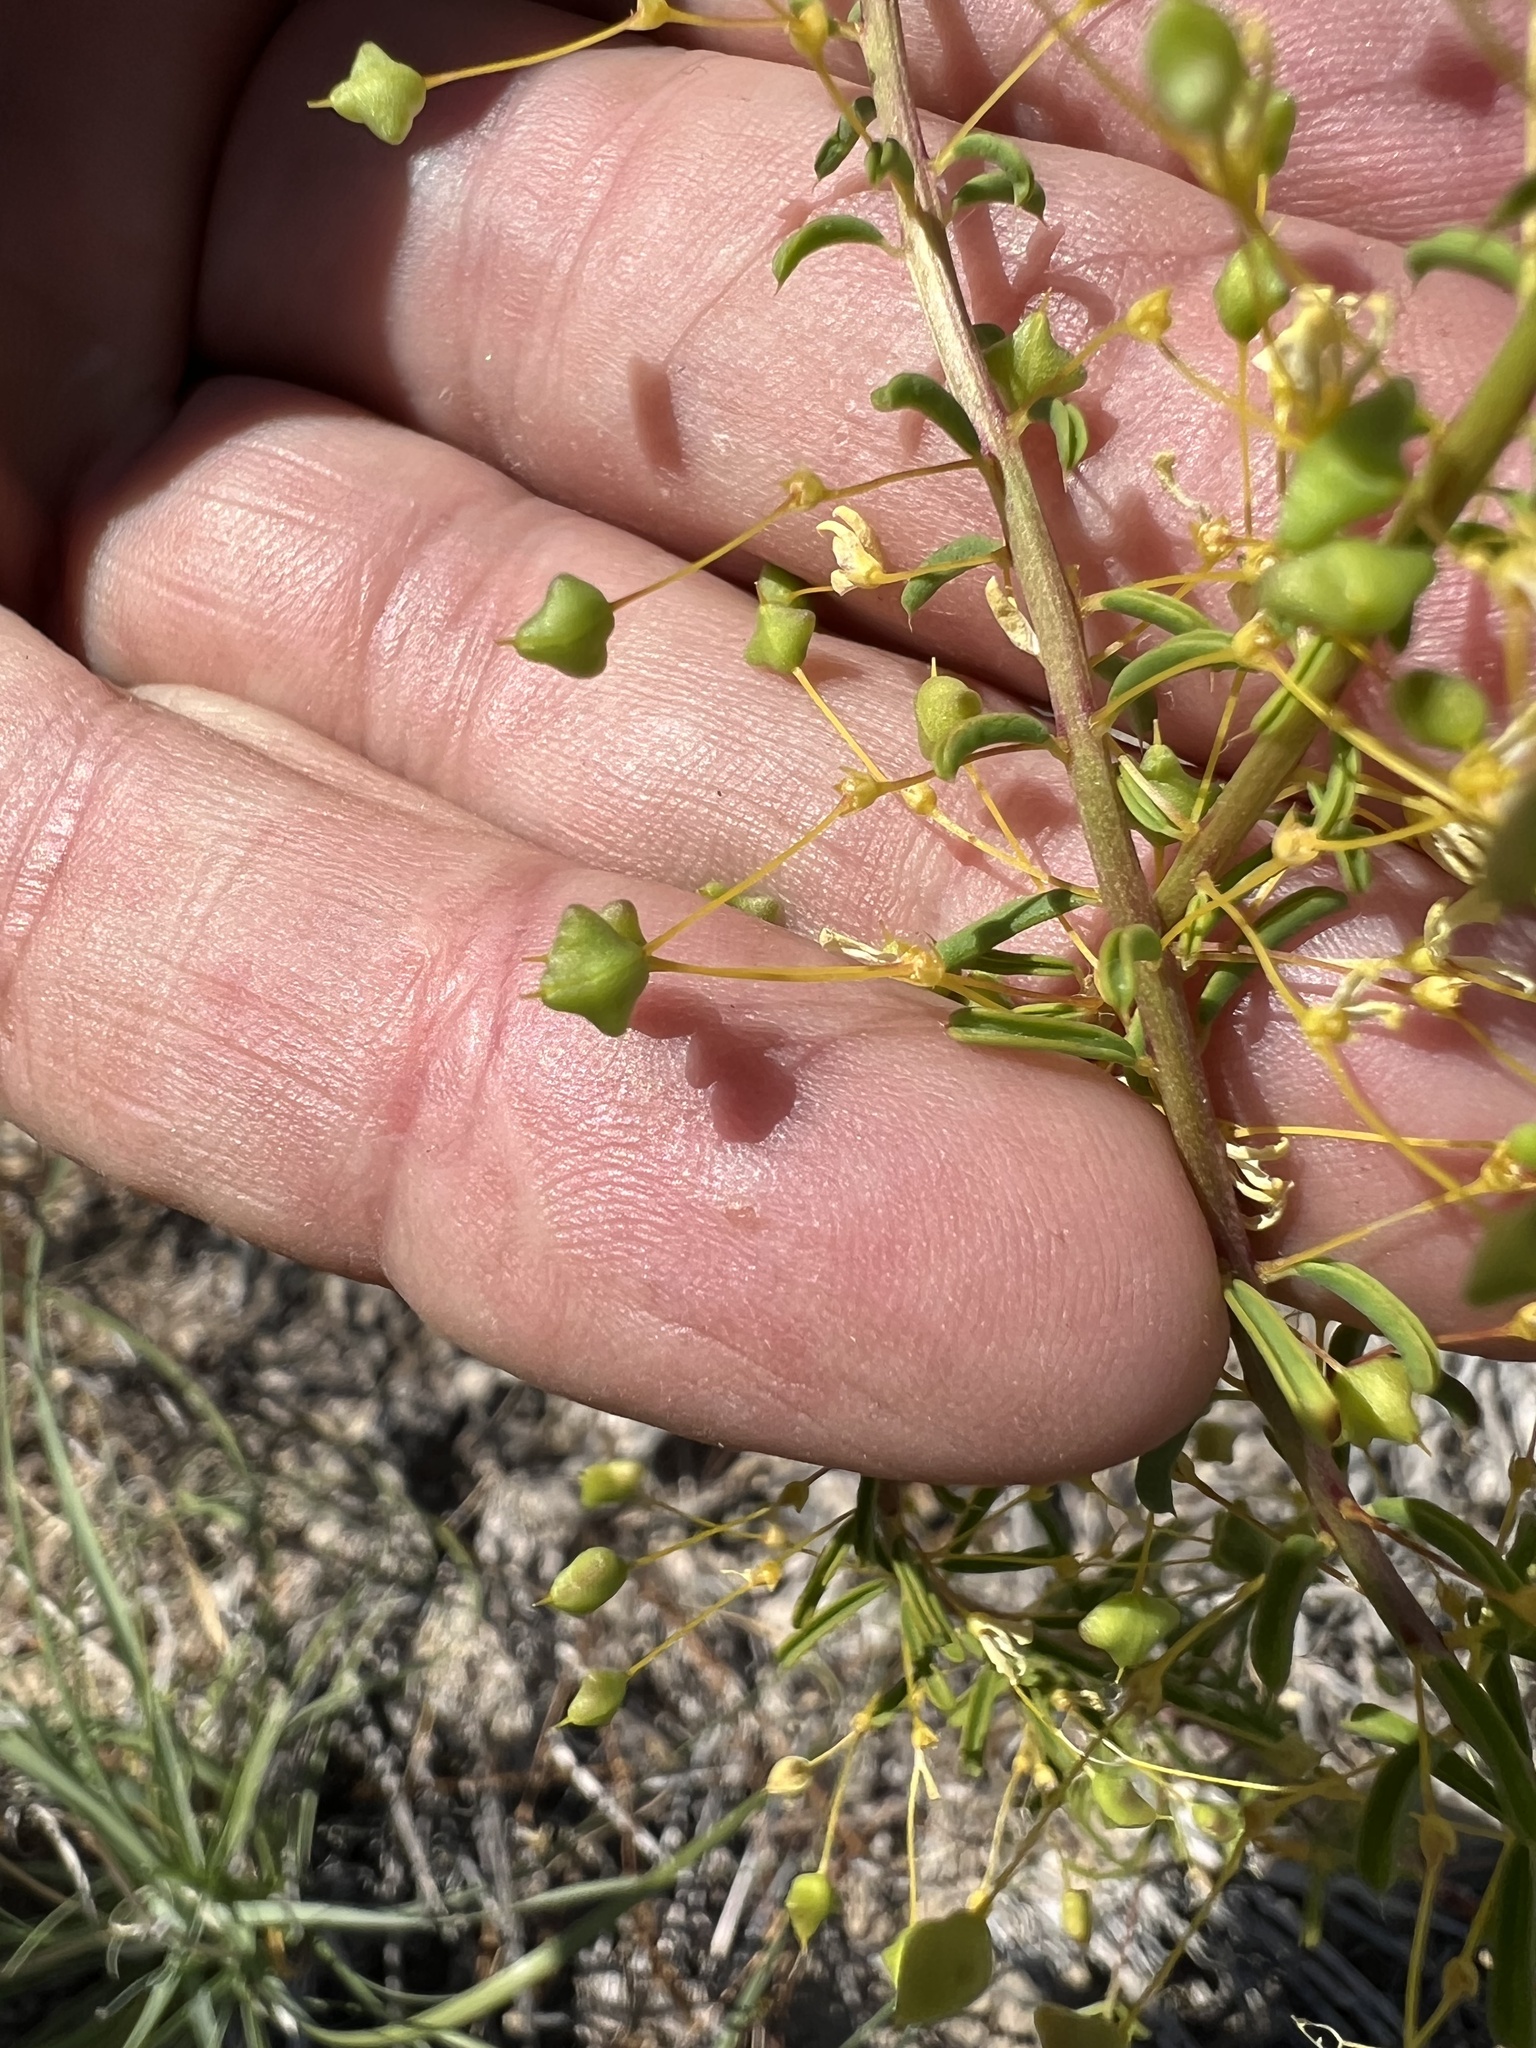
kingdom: Plantae
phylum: Tracheophyta
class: Magnoliopsida
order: Brassicales
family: Cleomaceae
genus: Cleomella
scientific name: Cleomella plocasperma
